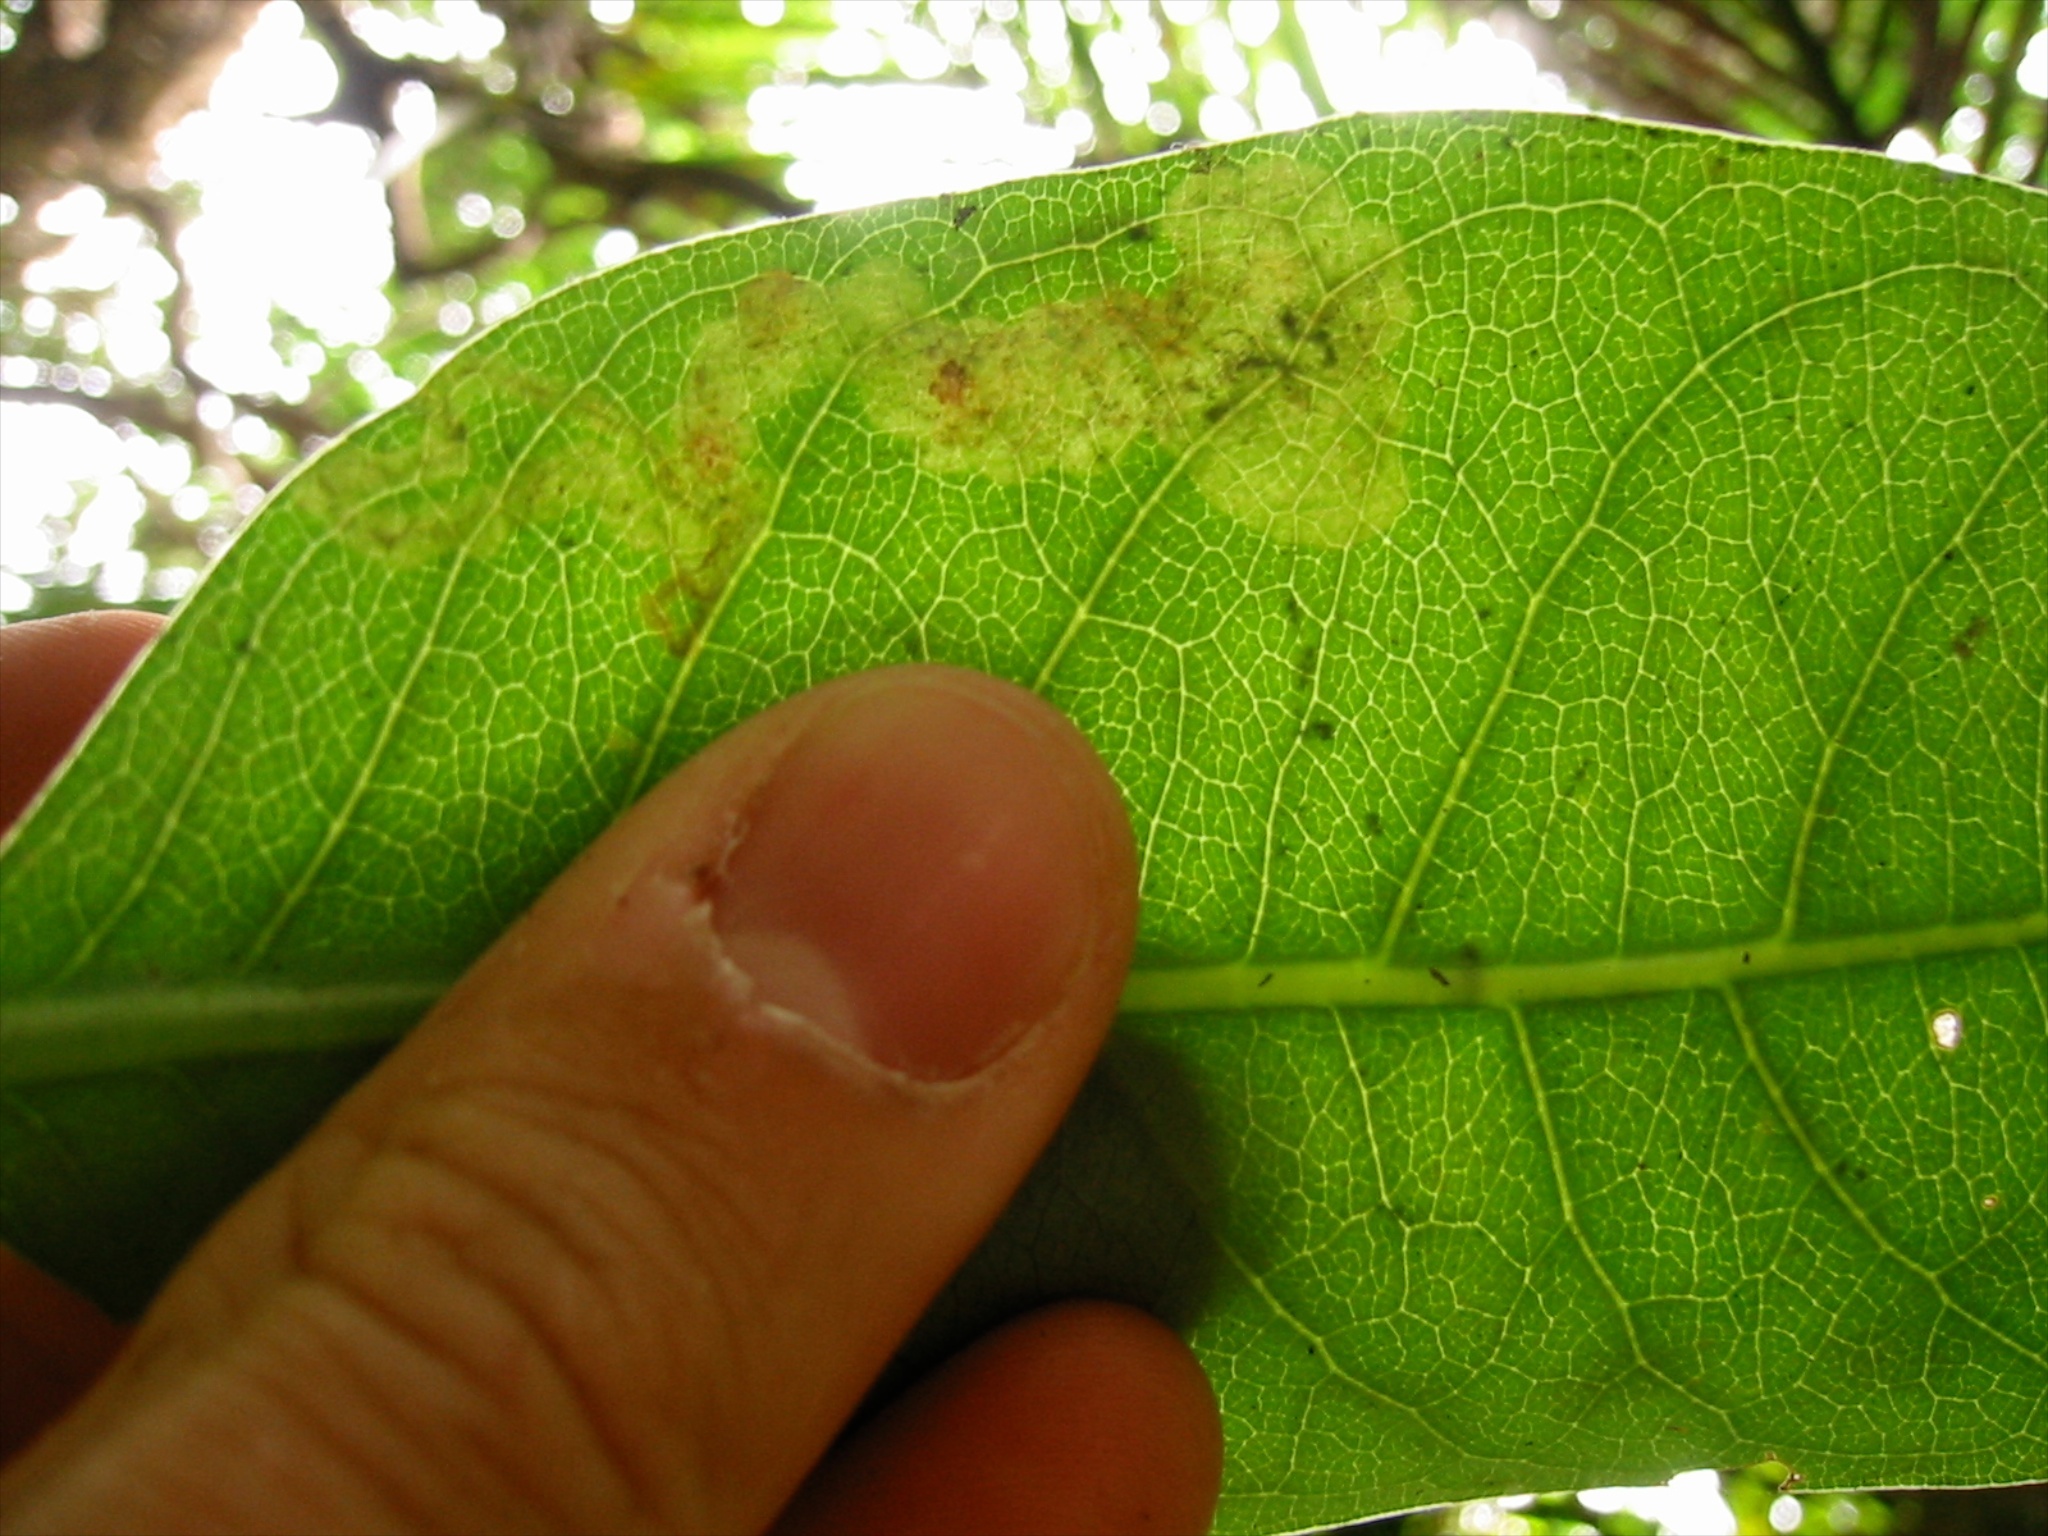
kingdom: Animalia
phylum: Arthropoda
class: Insecta
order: Lepidoptera
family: Gracillariidae
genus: Corythoxestis
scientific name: Corythoxestis zorionella
